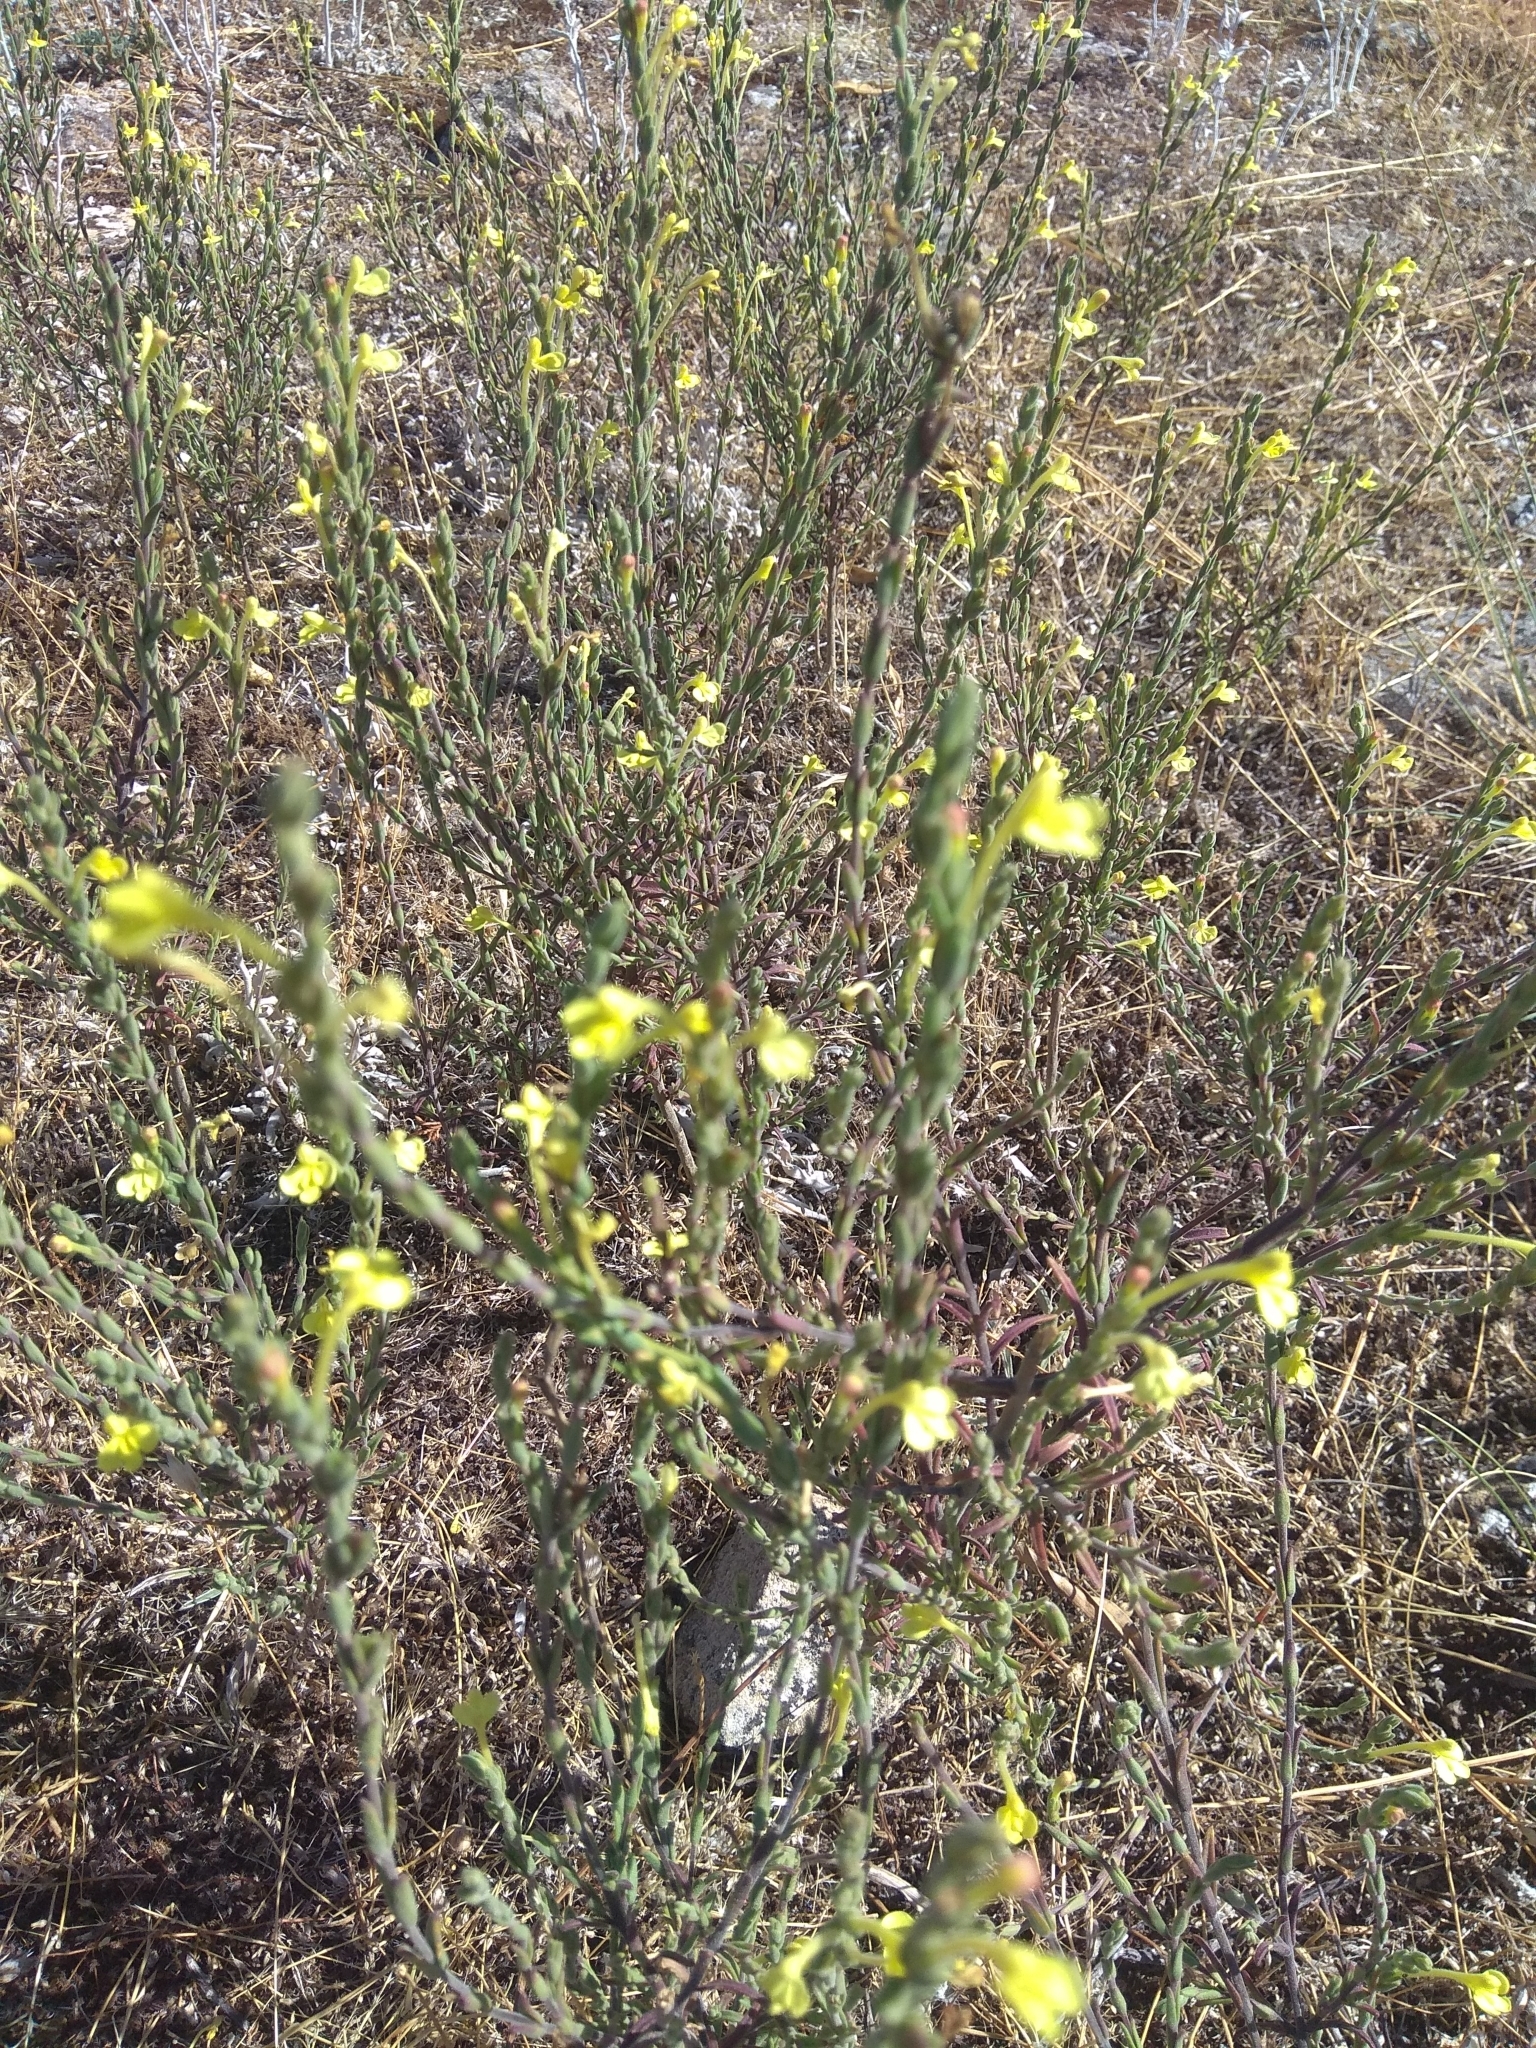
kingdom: Plantae
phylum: Tracheophyta
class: Magnoliopsida
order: Lamiales
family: Orobanchaceae
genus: Odontites
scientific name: Odontites longiflorus
